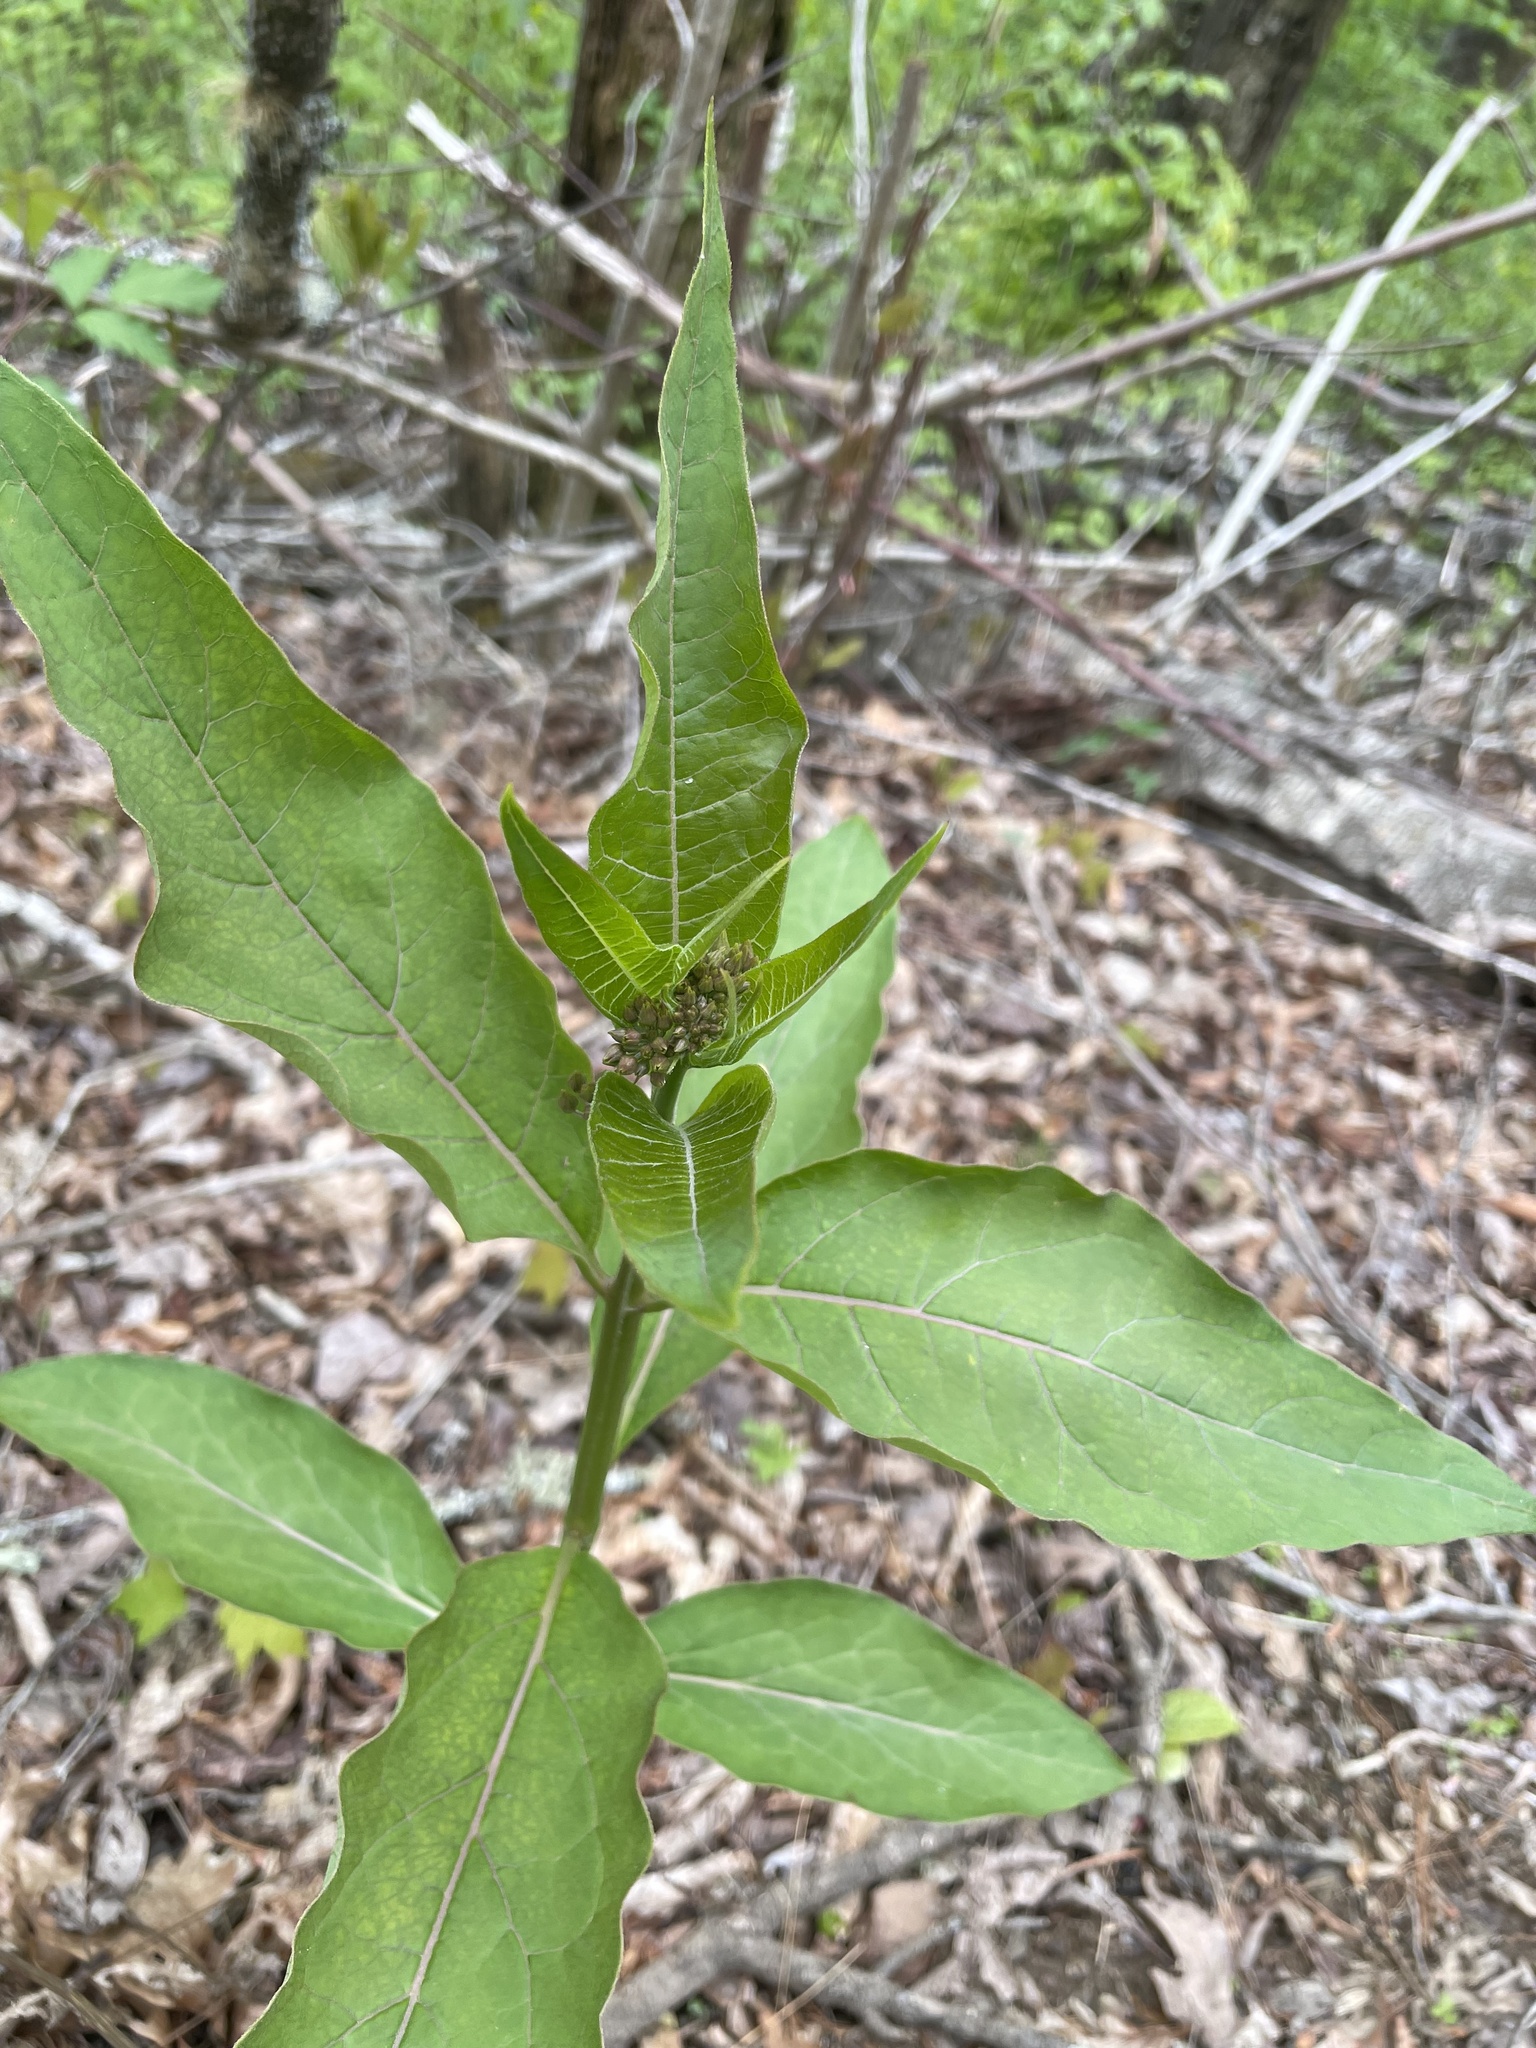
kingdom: Plantae
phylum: Tracheophyta
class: Magnoliopsida
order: Gentianales
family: Apocynaceae
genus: Asclepias
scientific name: Asclepias exaltata
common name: Poke milkweed
